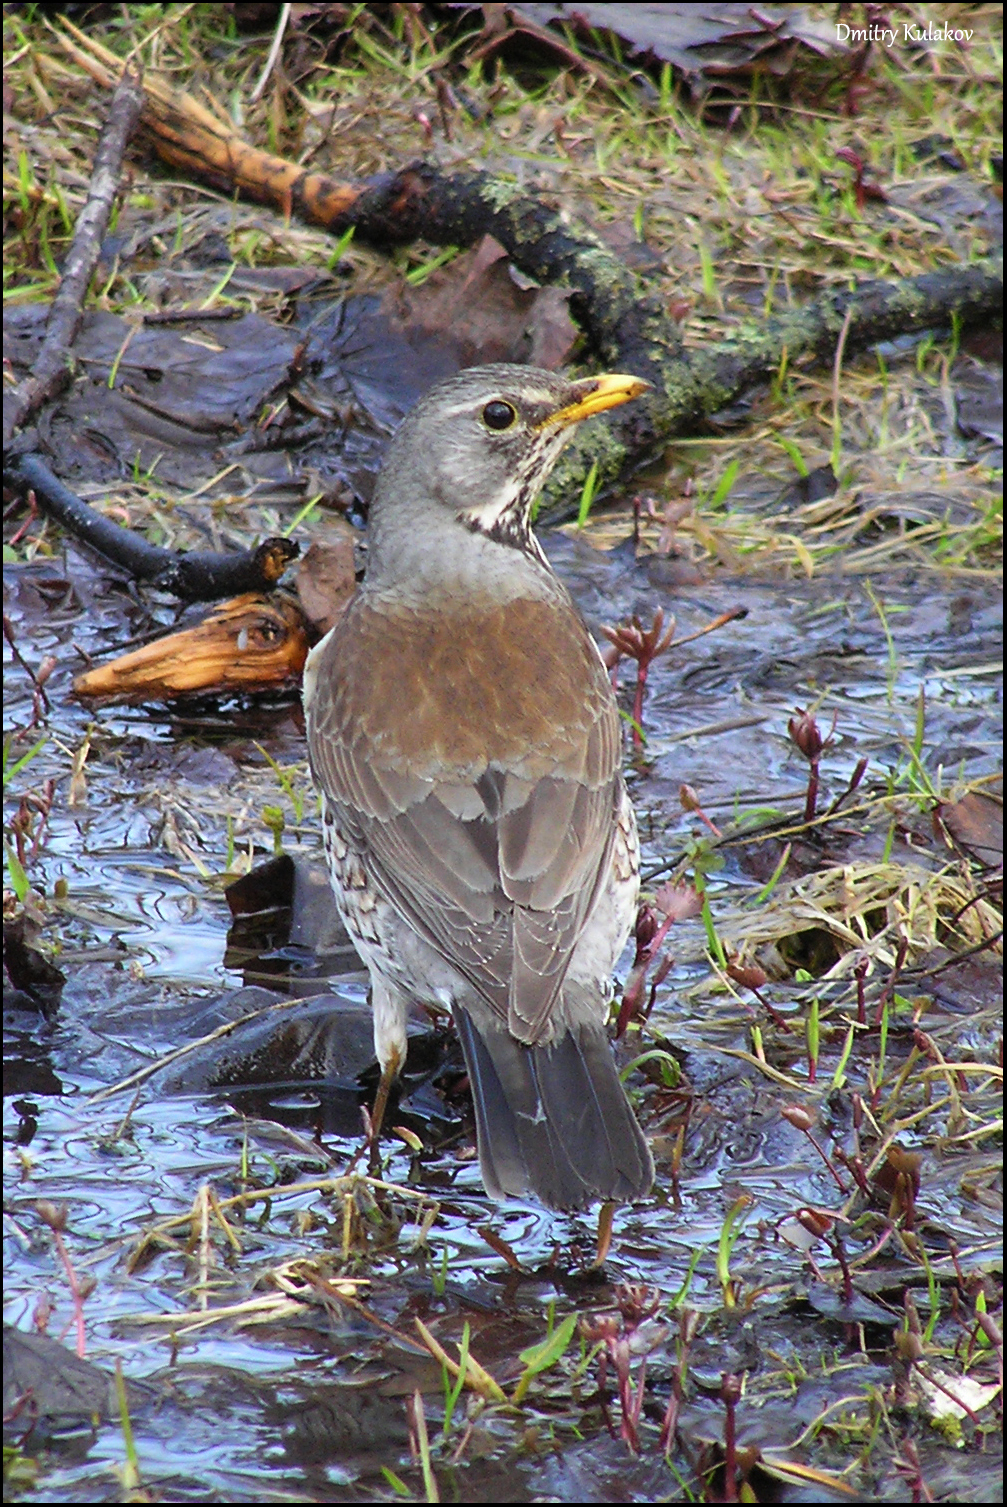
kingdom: Animalia
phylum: Chordata
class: Aves
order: Passeriformes
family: Turdidae
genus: Turdus
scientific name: Turdus pilaris
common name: Fieldfare
